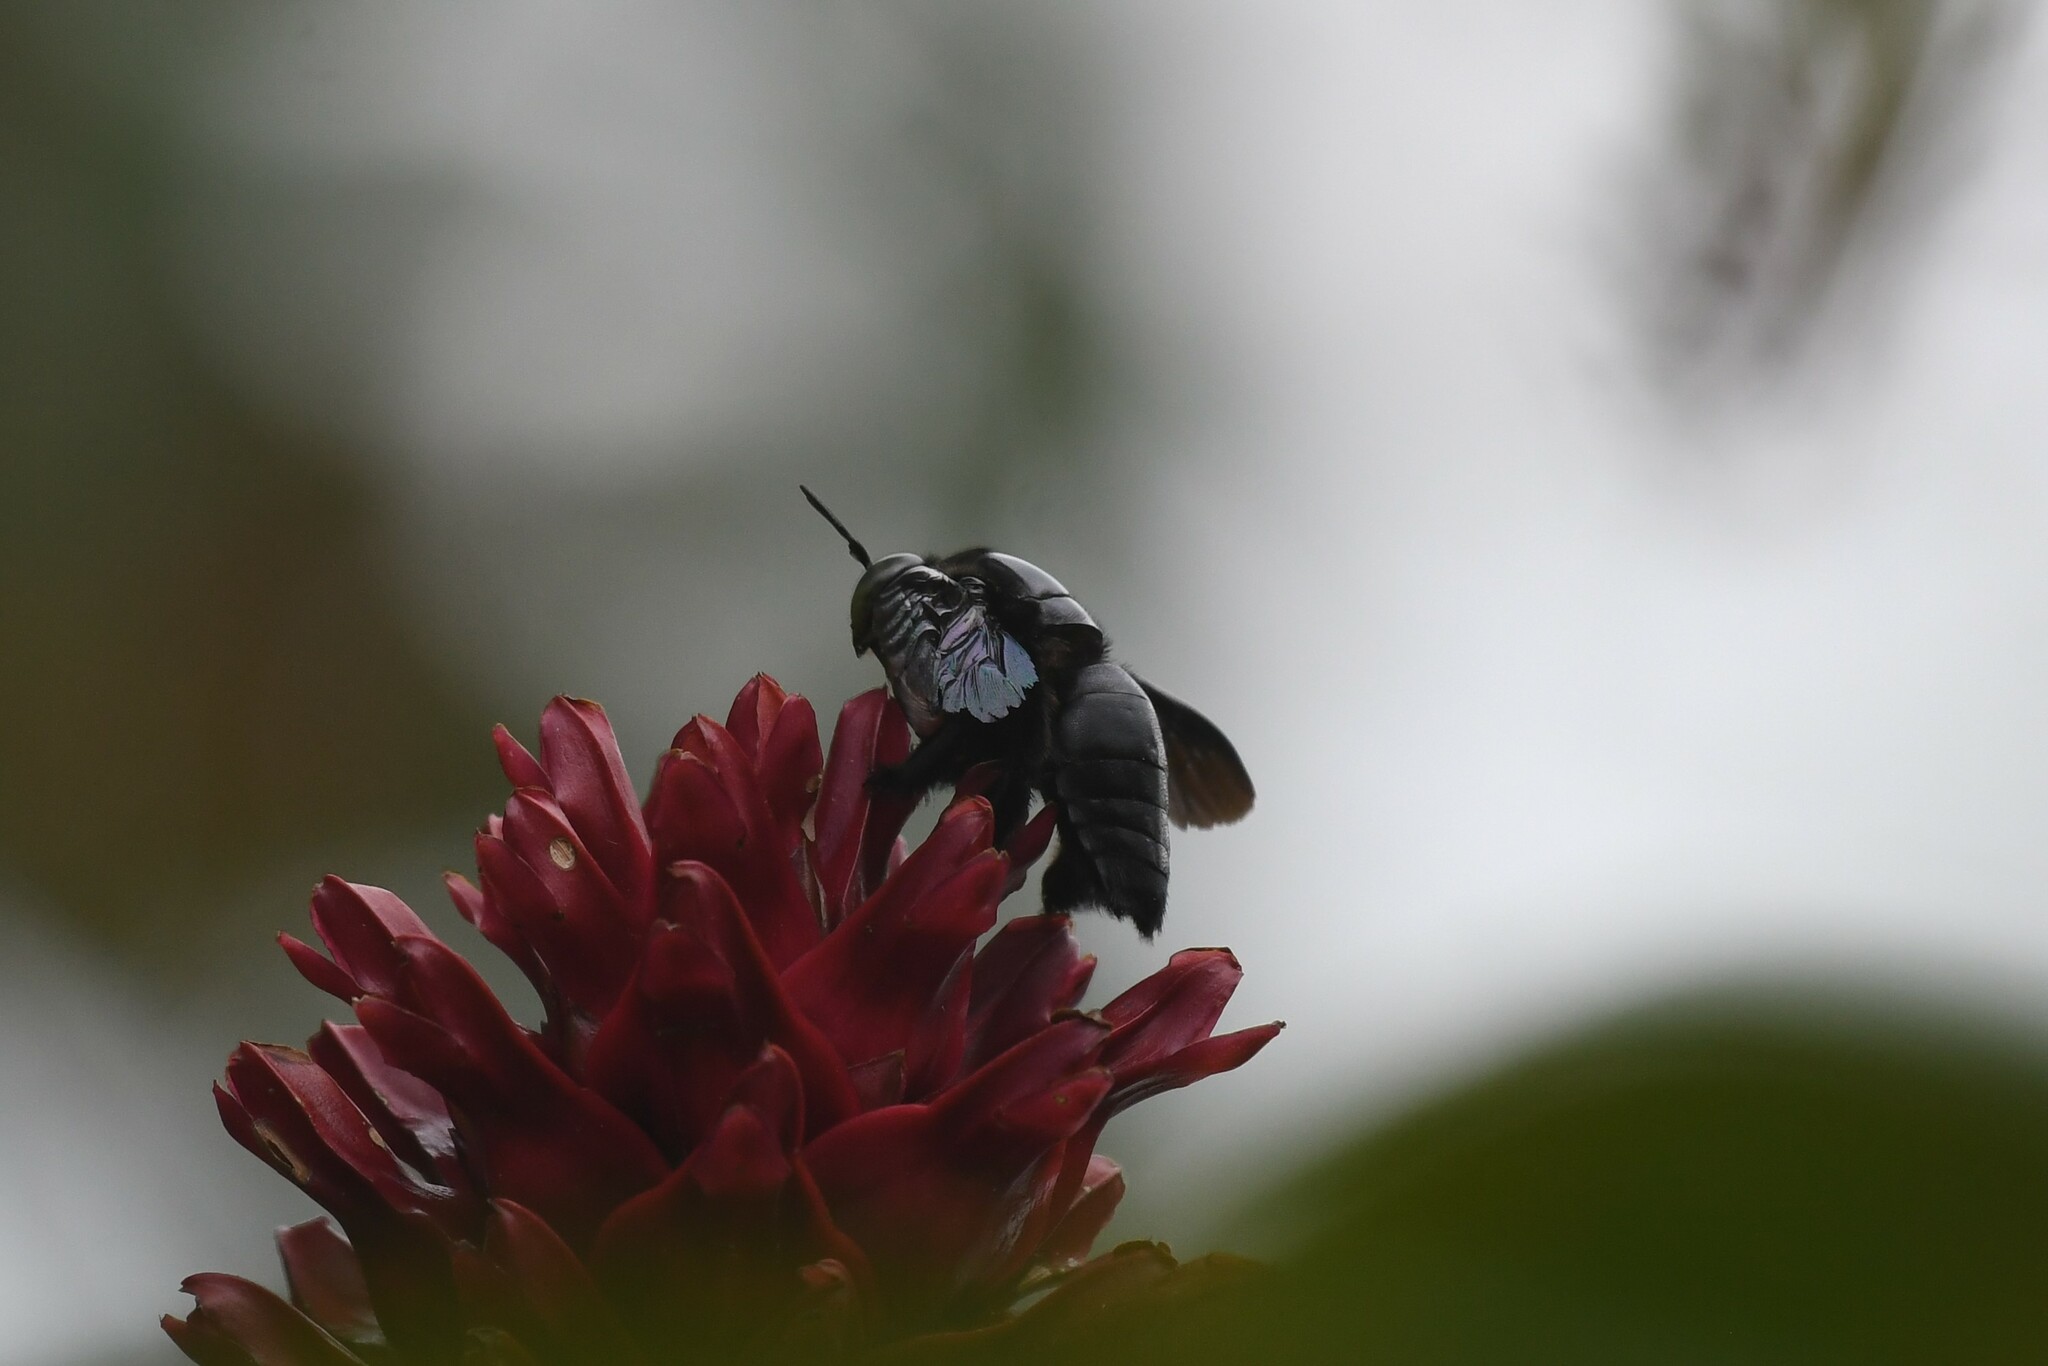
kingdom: Animalia
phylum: Arthropoda
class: Insecta
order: Hymenoptera
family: Apidae
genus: Xylocopa
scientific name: Xylocopa latipes
